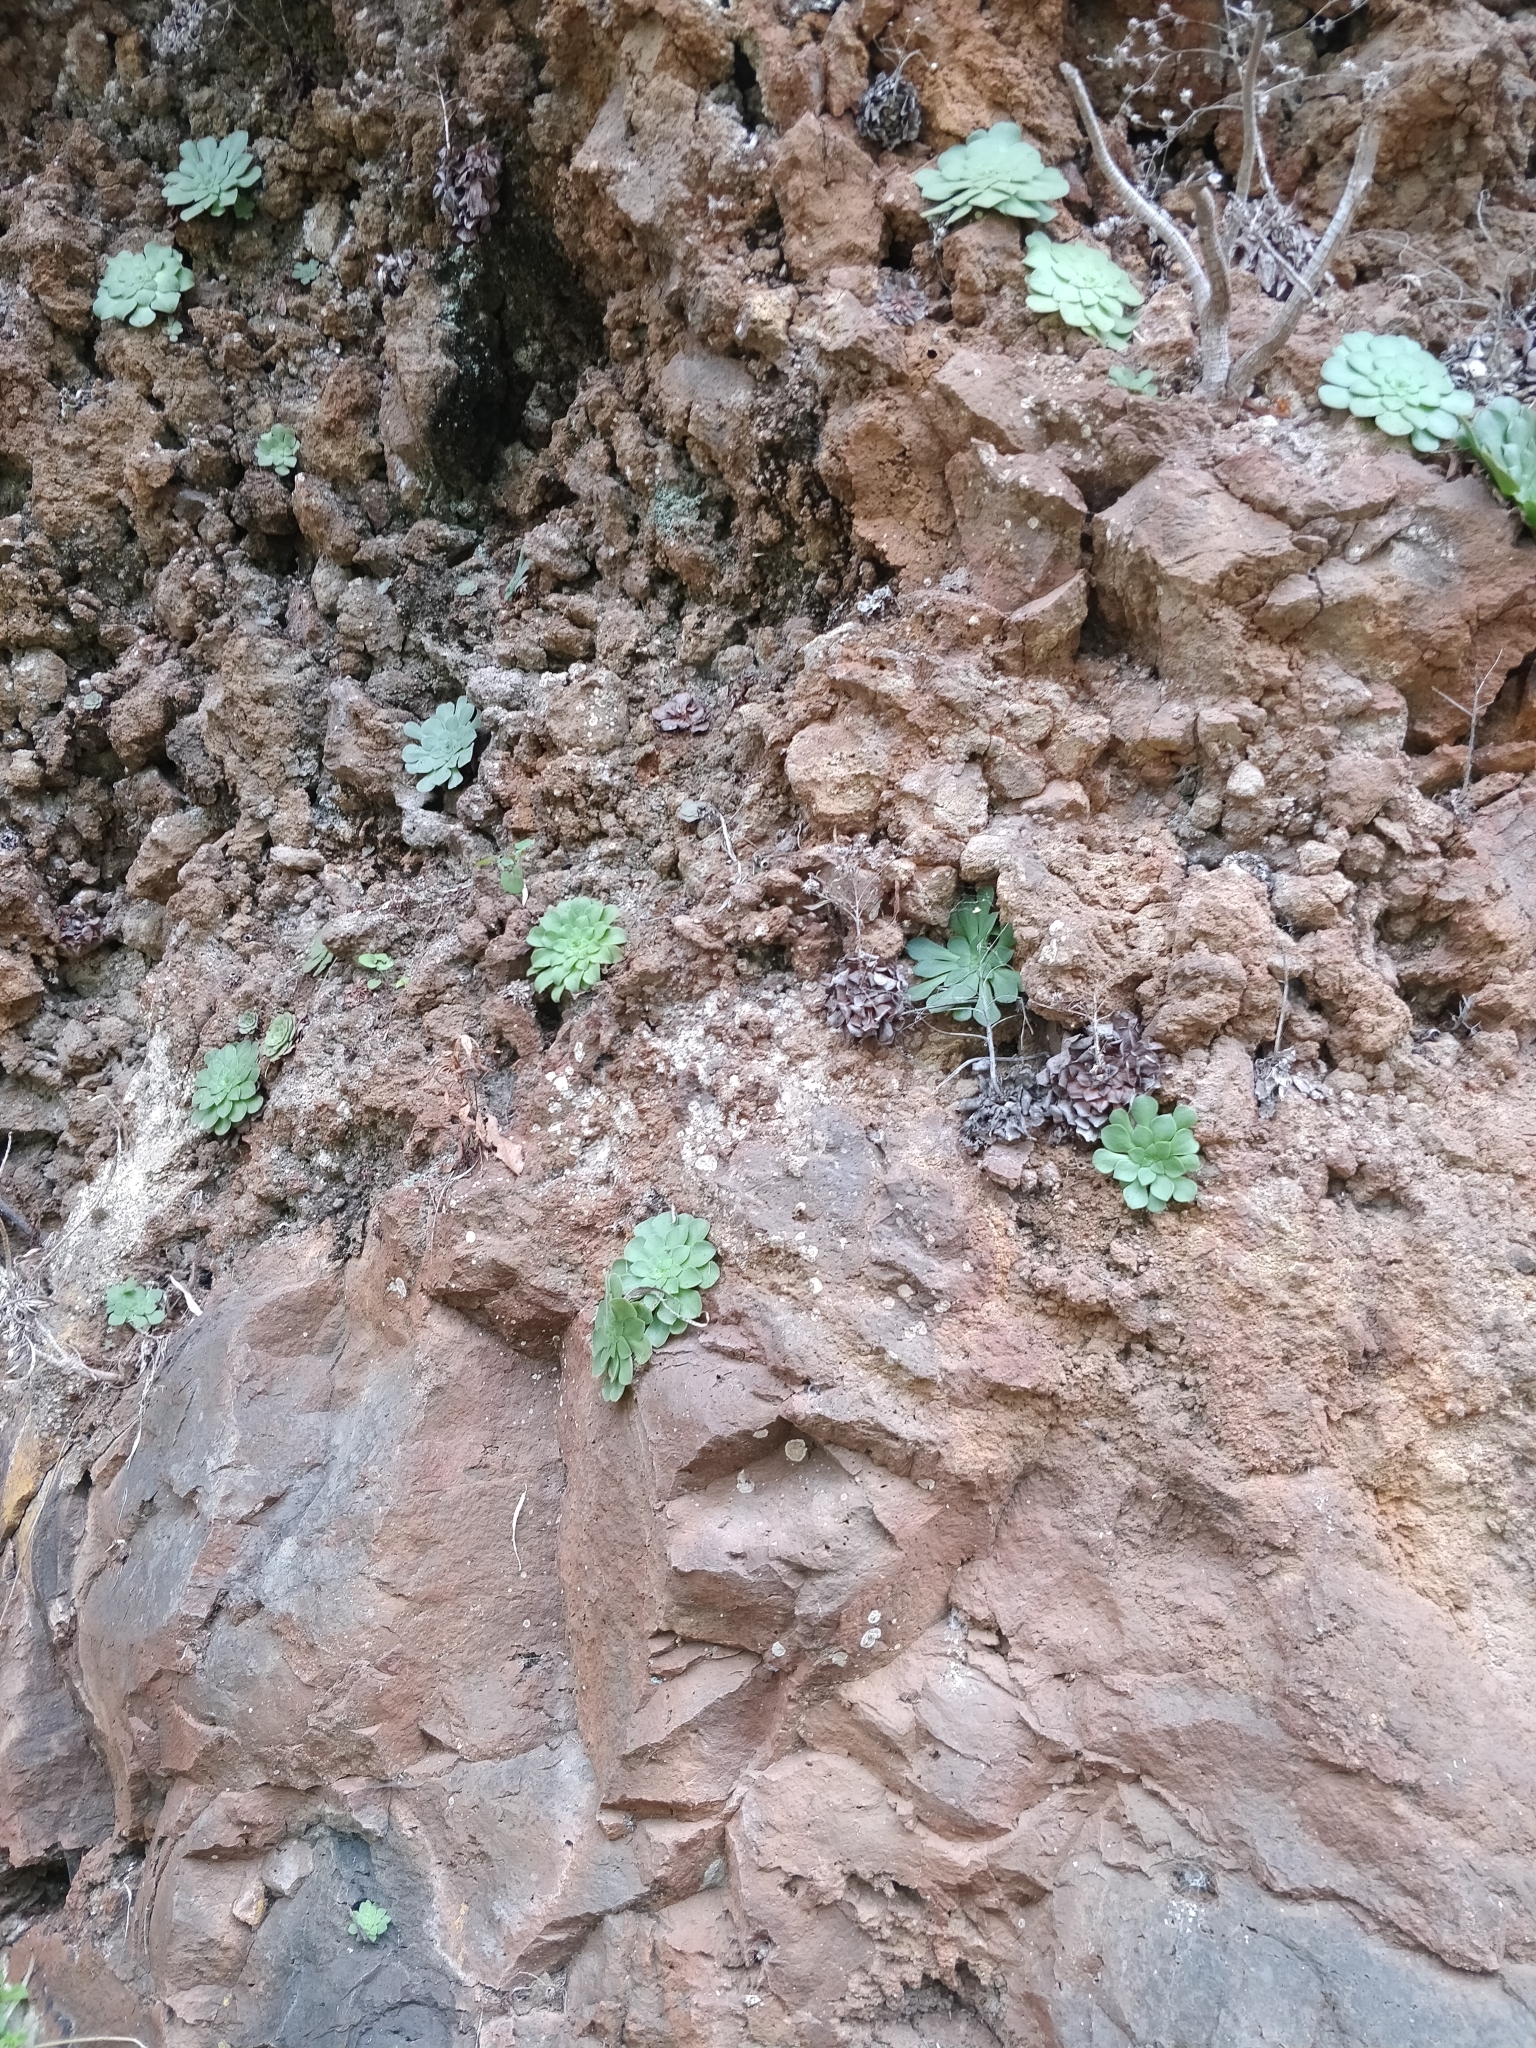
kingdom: Plantae
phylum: Tracheophyta
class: Magnoliopsida
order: Saxifragales
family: Crassulaceae
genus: Aeonium
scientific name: Aeonium glandulosum
